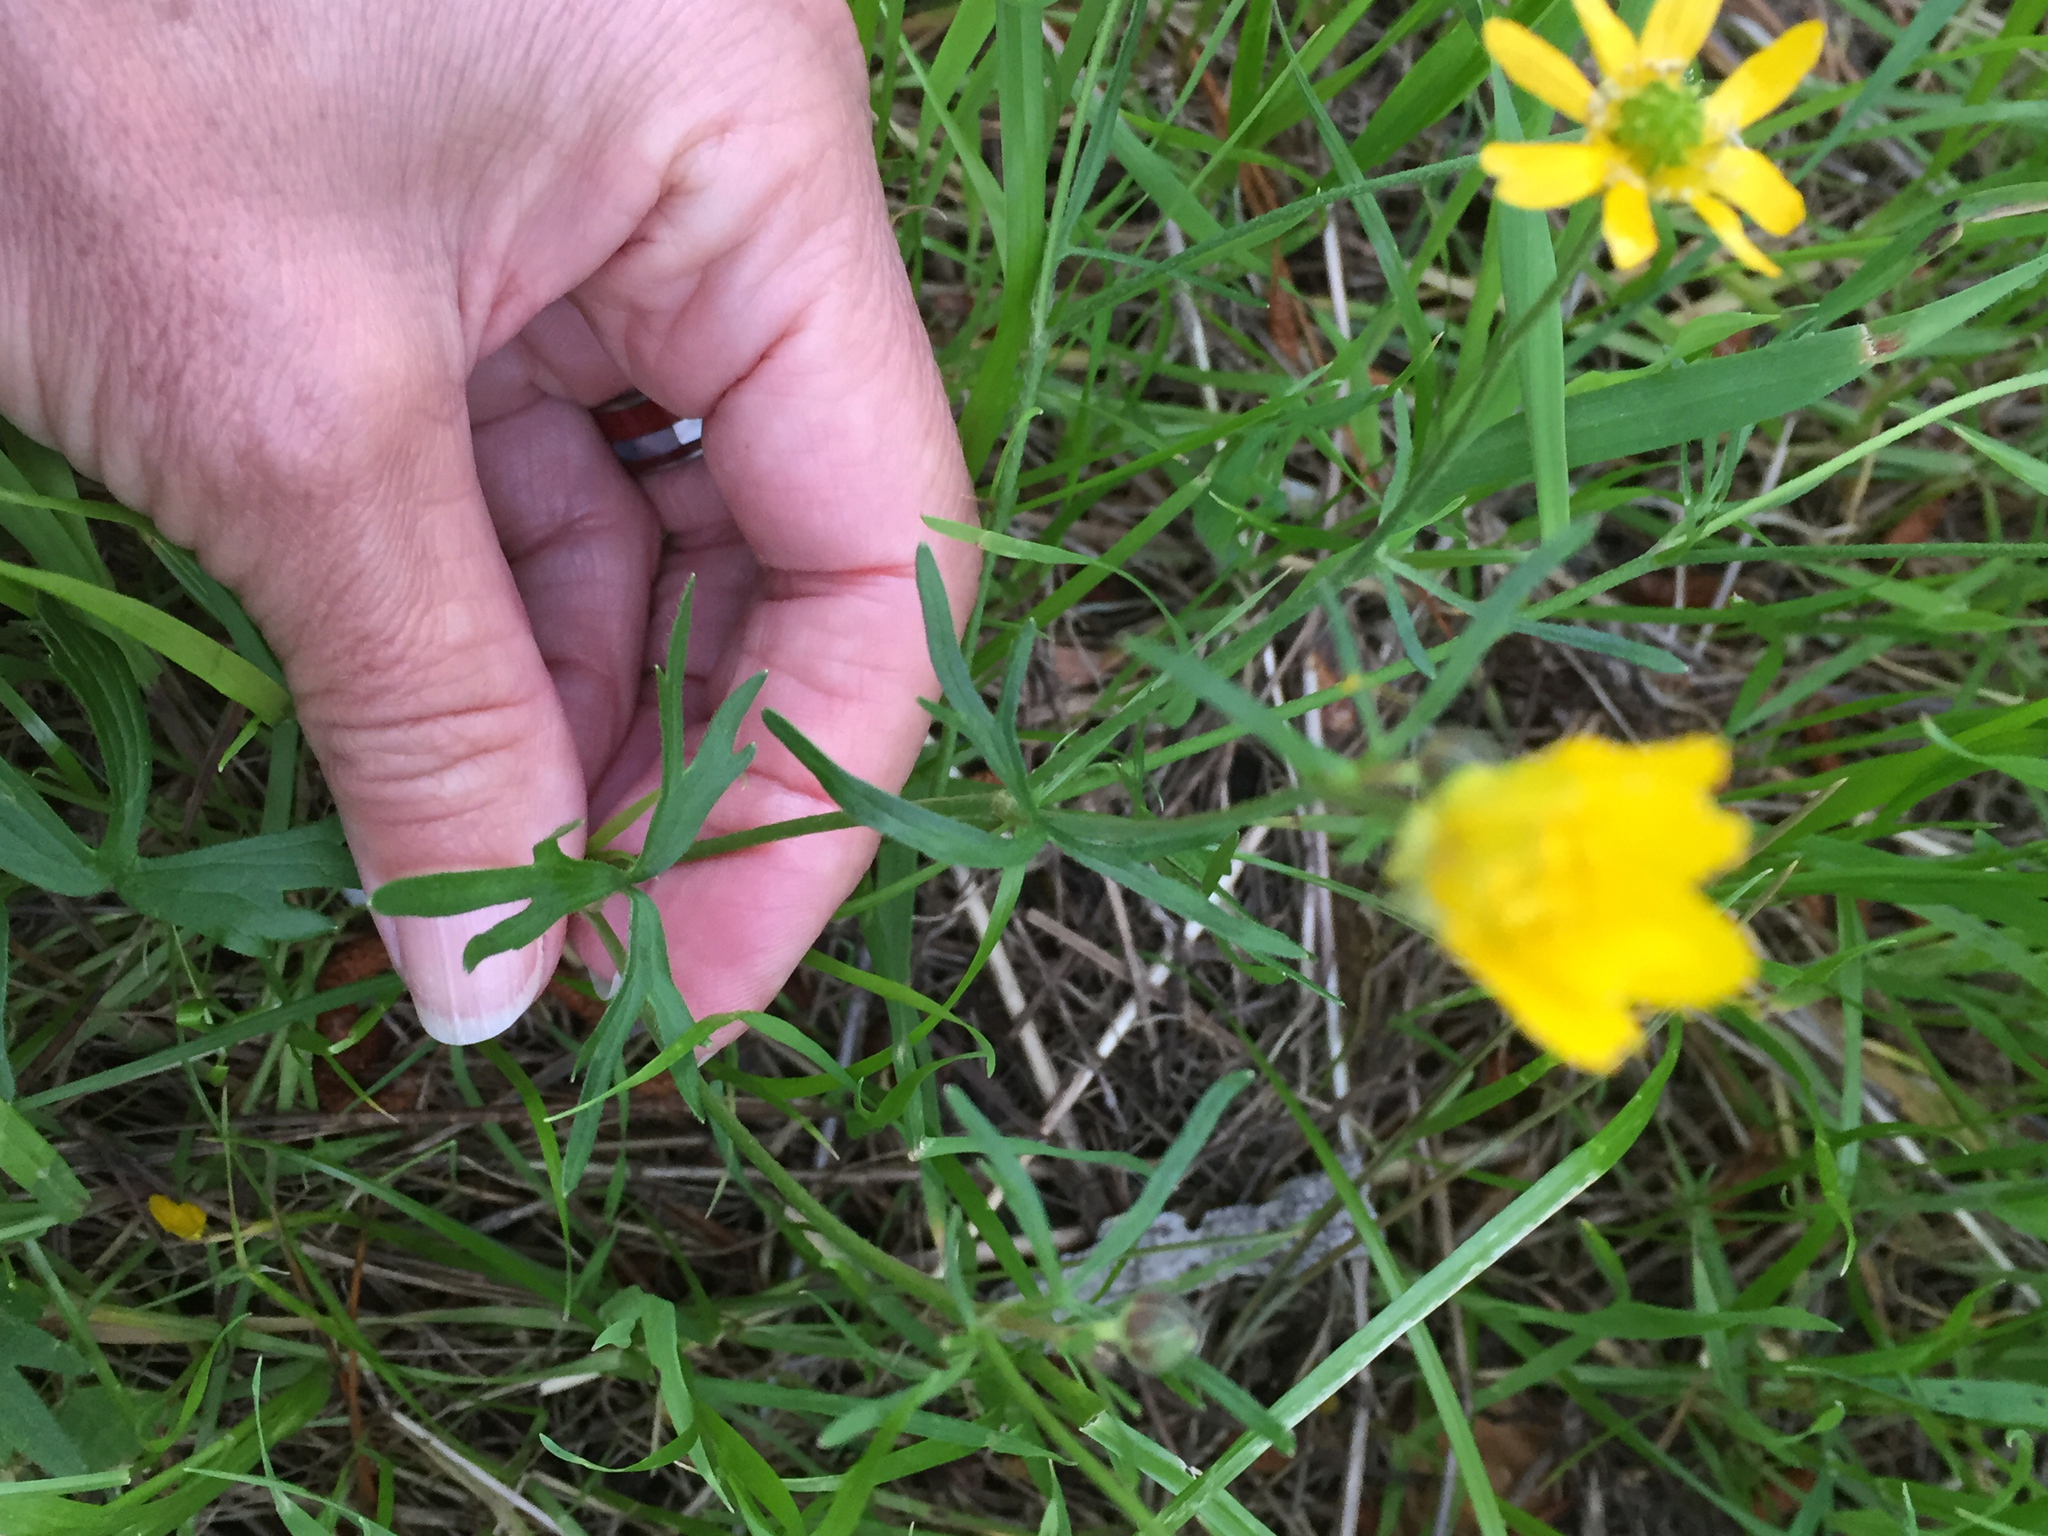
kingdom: Plantae
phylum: Tracheophyta
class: Magnoliopsida
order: Ranunculales
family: Ranunculaceae
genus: Ranunculus
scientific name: Ranunculus californicus
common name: California buttercup
